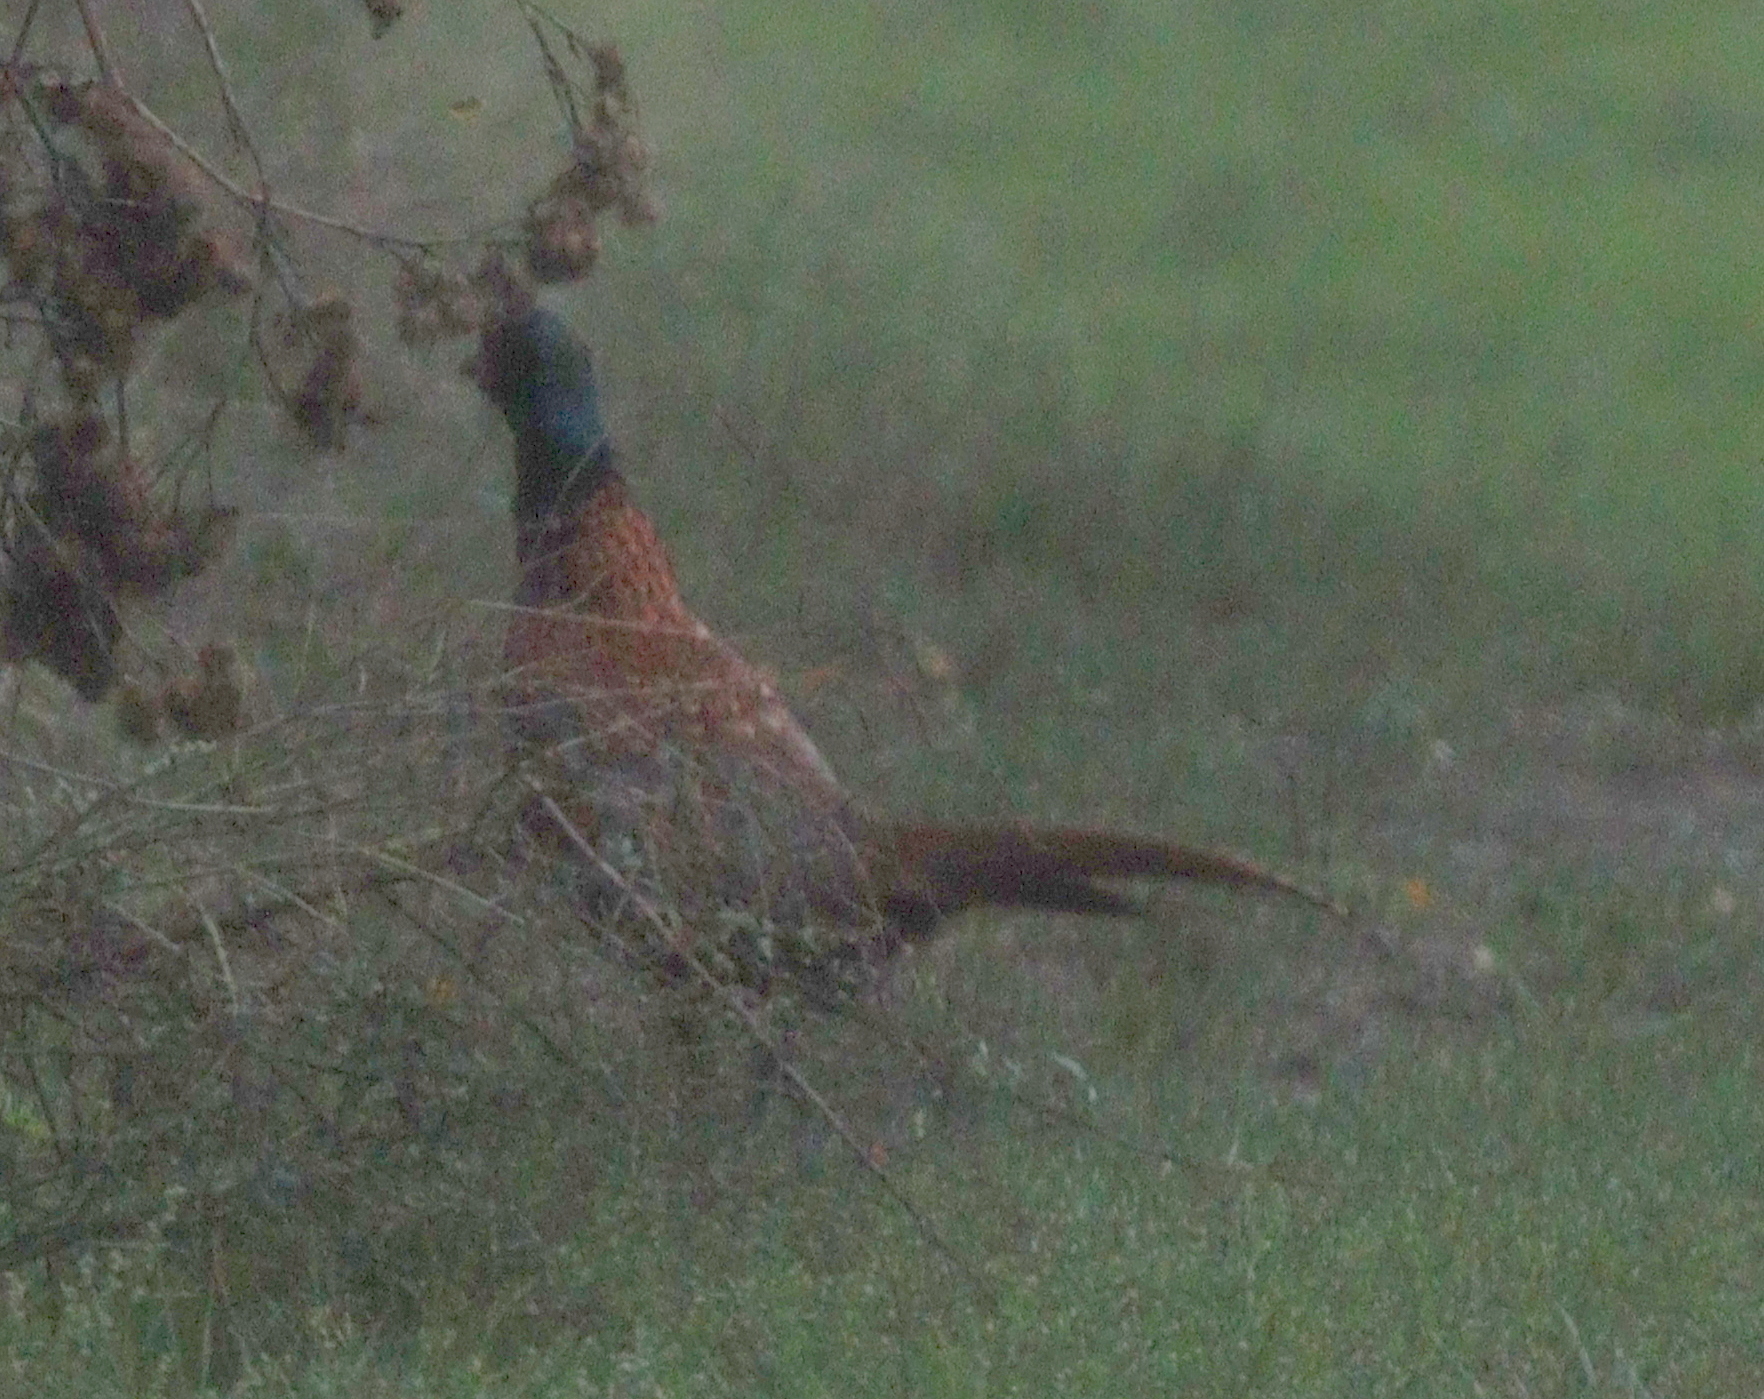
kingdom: Animalia
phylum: Chordata
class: Aves
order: Galliformes
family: Phasianidae
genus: Phasianus
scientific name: Phasianus colchicus
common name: Common pheasant
